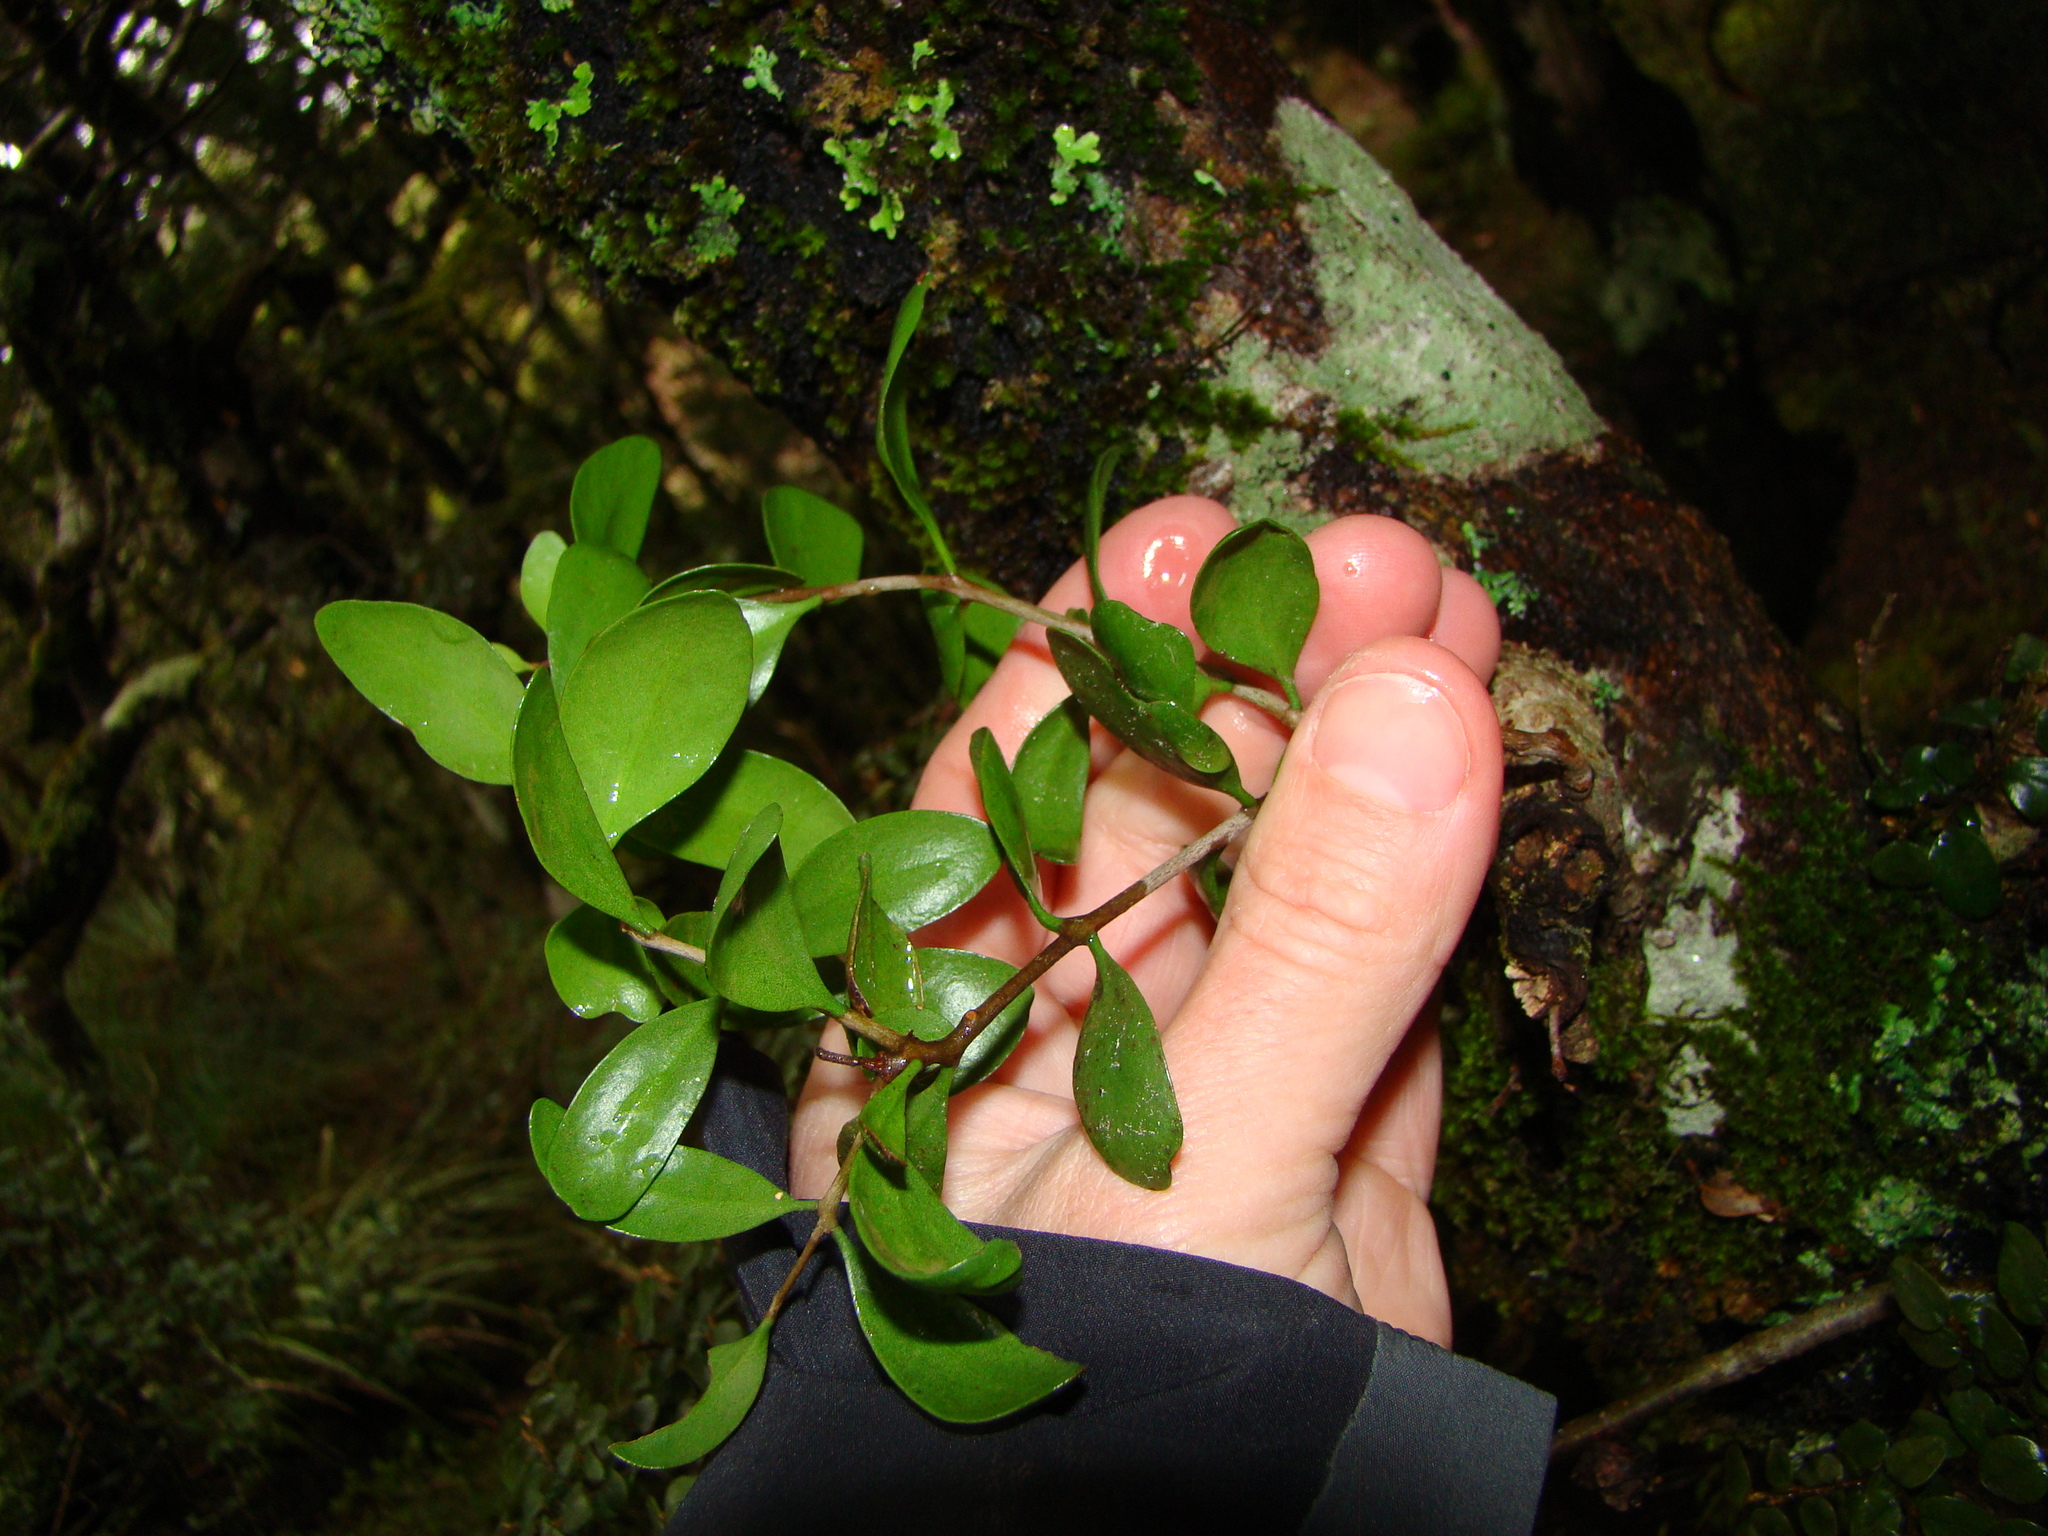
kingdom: Plantae
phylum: Tracheophyta
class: Magnoliopsida
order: Santalales
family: Loranthaceae
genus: Peraxilla
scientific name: Peraxilla tetrapetala
